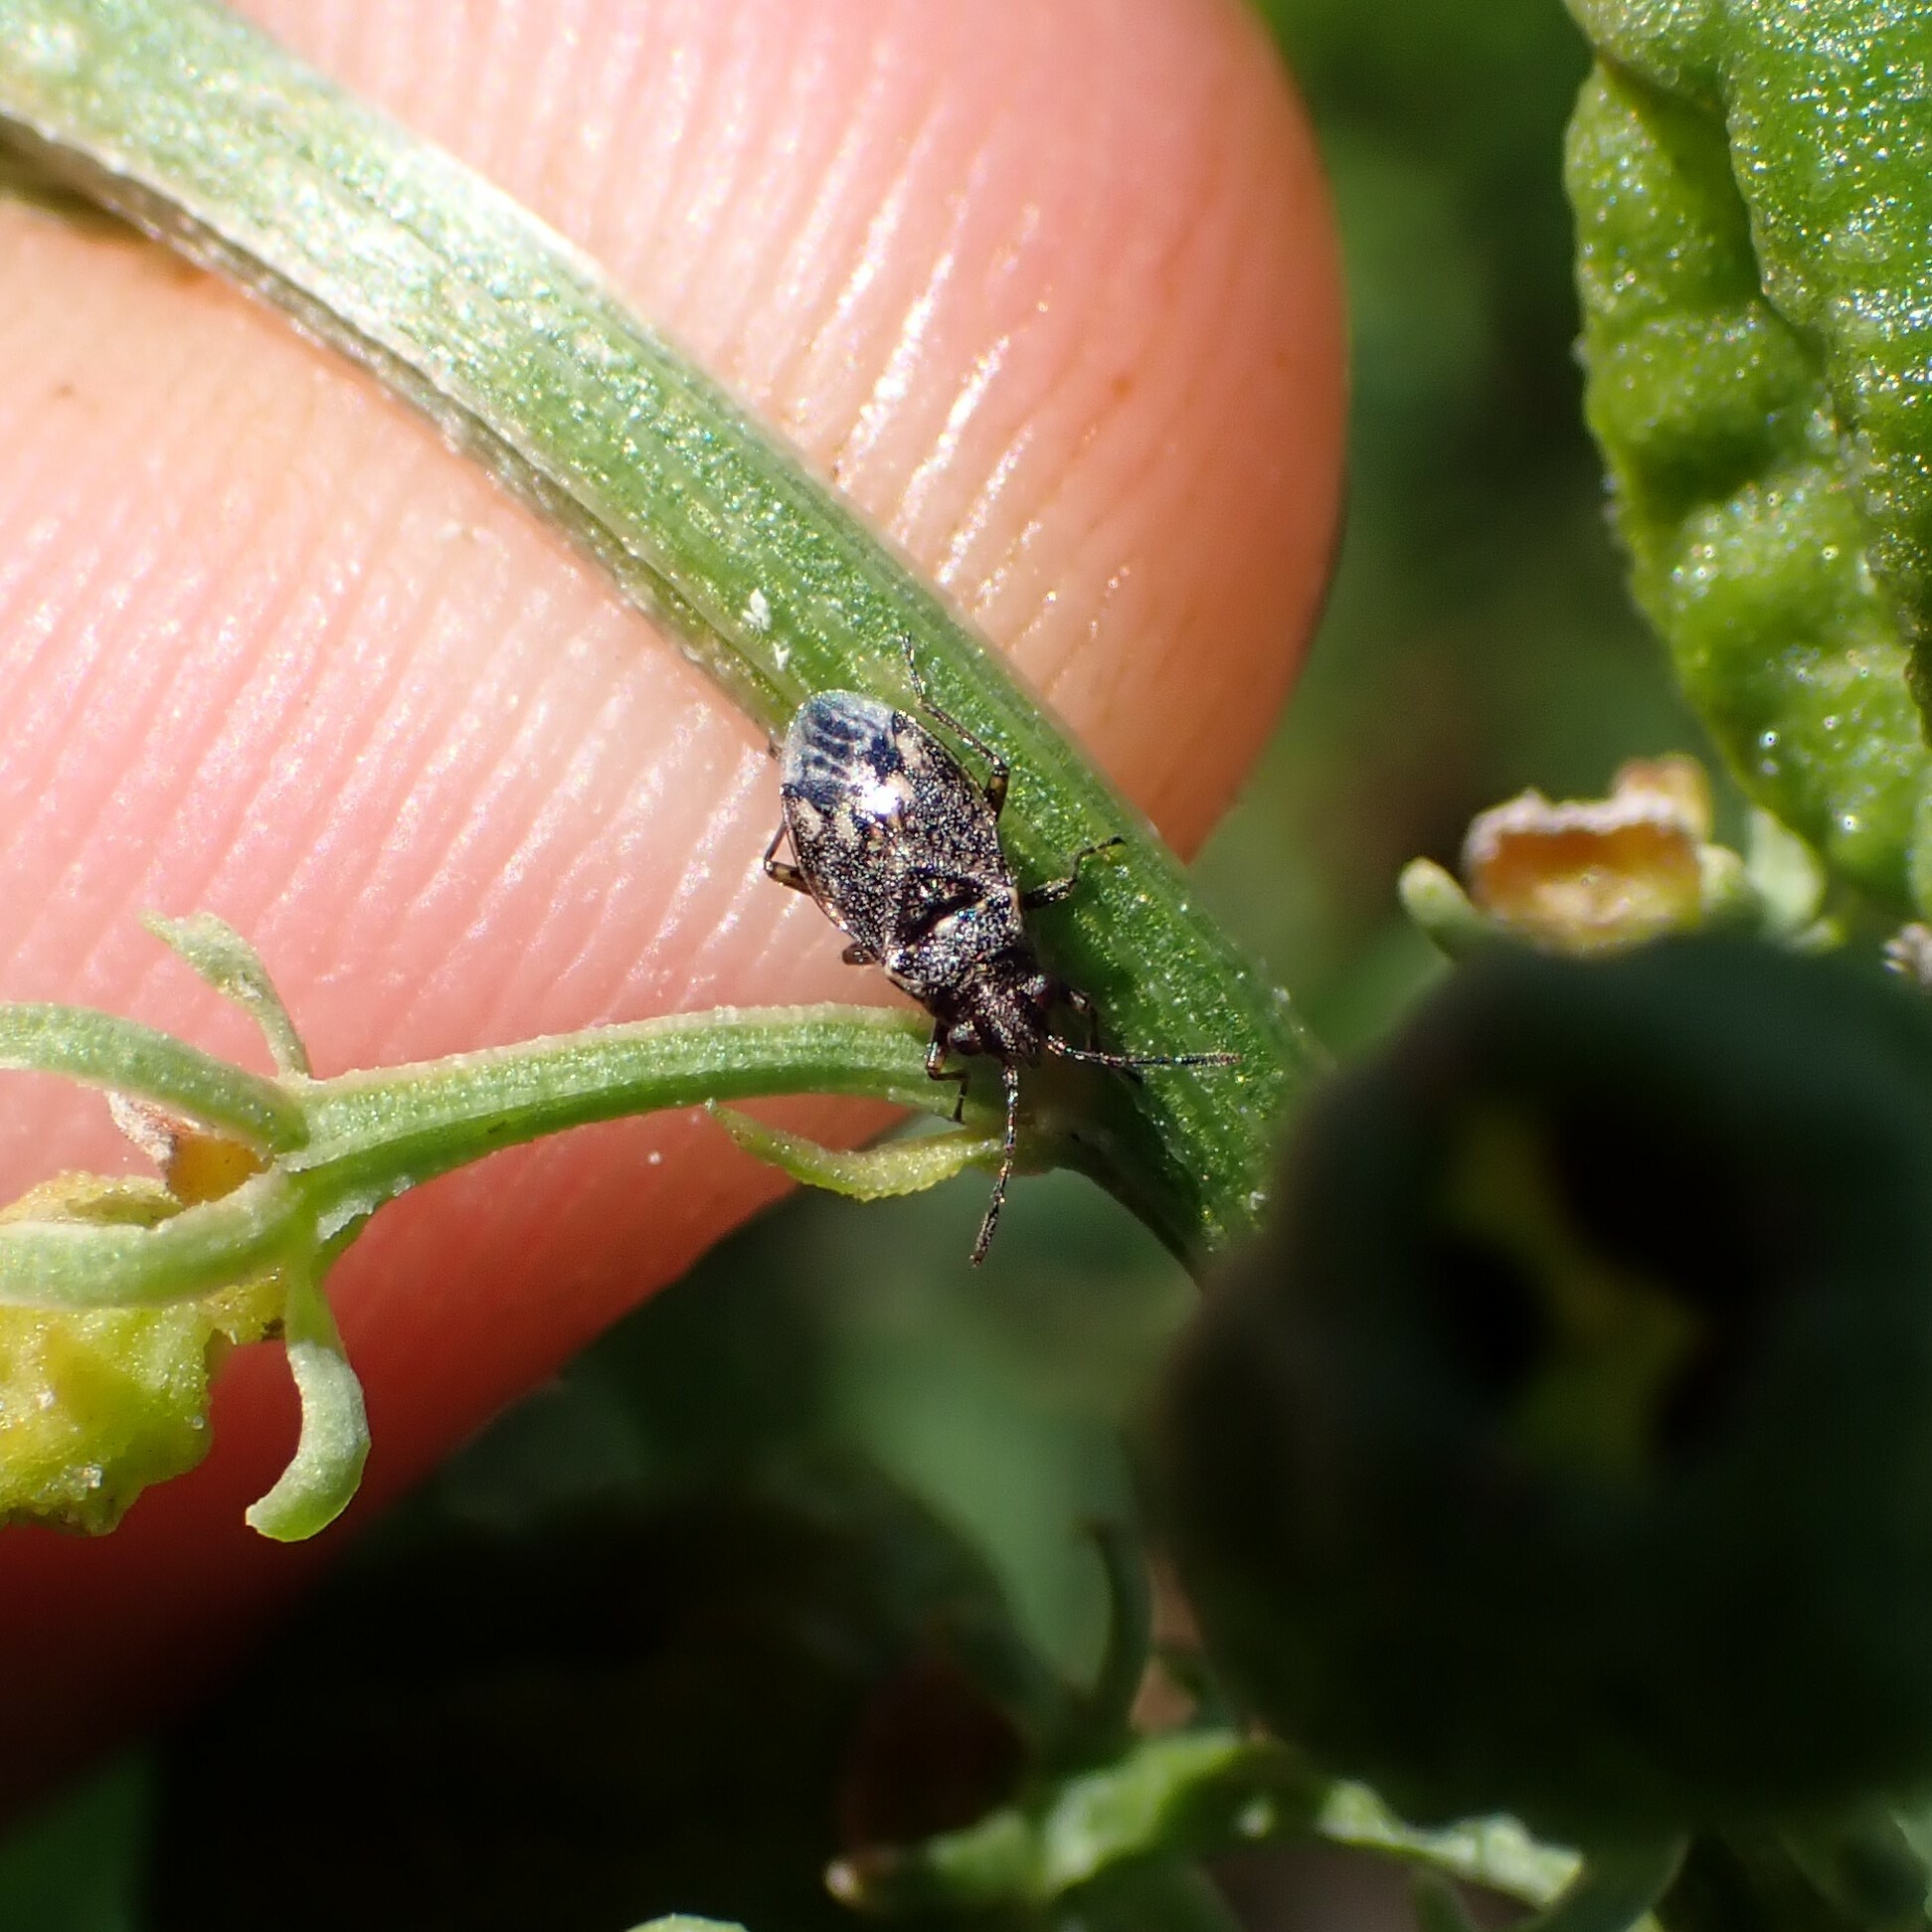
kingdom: Animalia
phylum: Arthropoda
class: Insecta
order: Hemiptera
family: Lygaeidae
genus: Nysius
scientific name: Nysius huttoni
